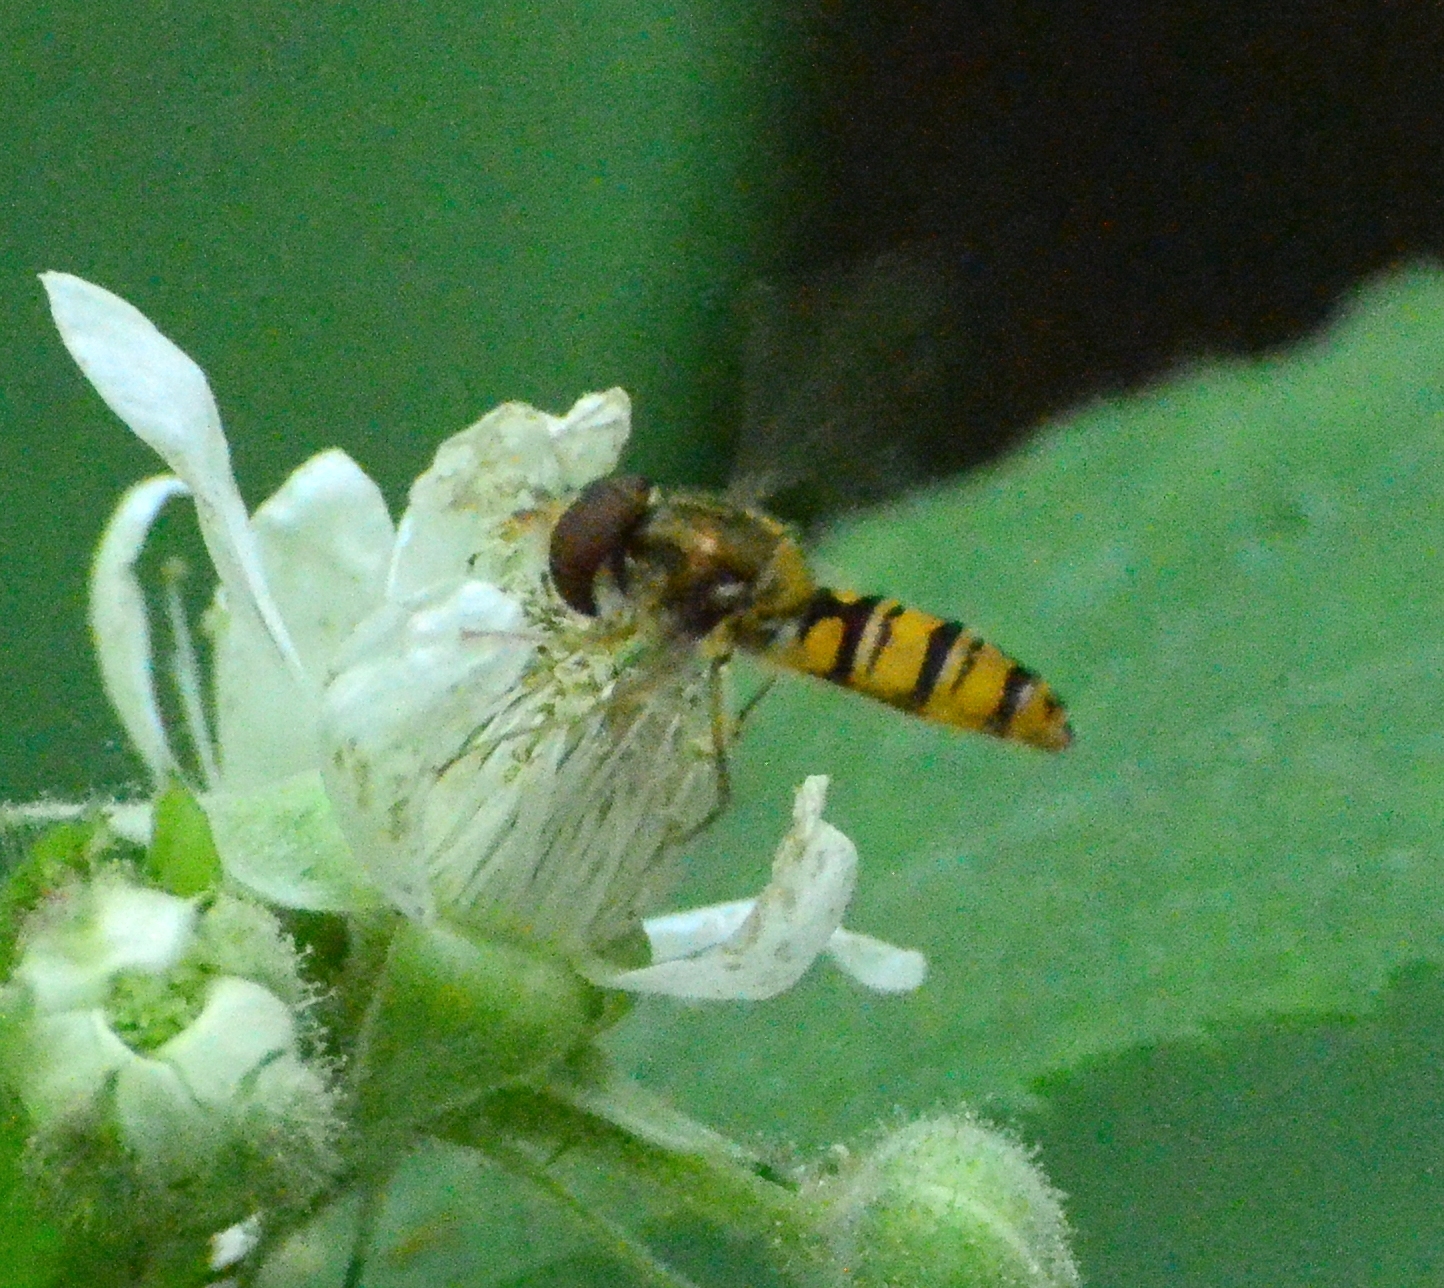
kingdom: Animalia
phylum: Arthropoda
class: Insecta
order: Diptera
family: Syrphidae
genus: Episyrphus
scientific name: Episyrphus balteatus
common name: Marmalade hoverfly
